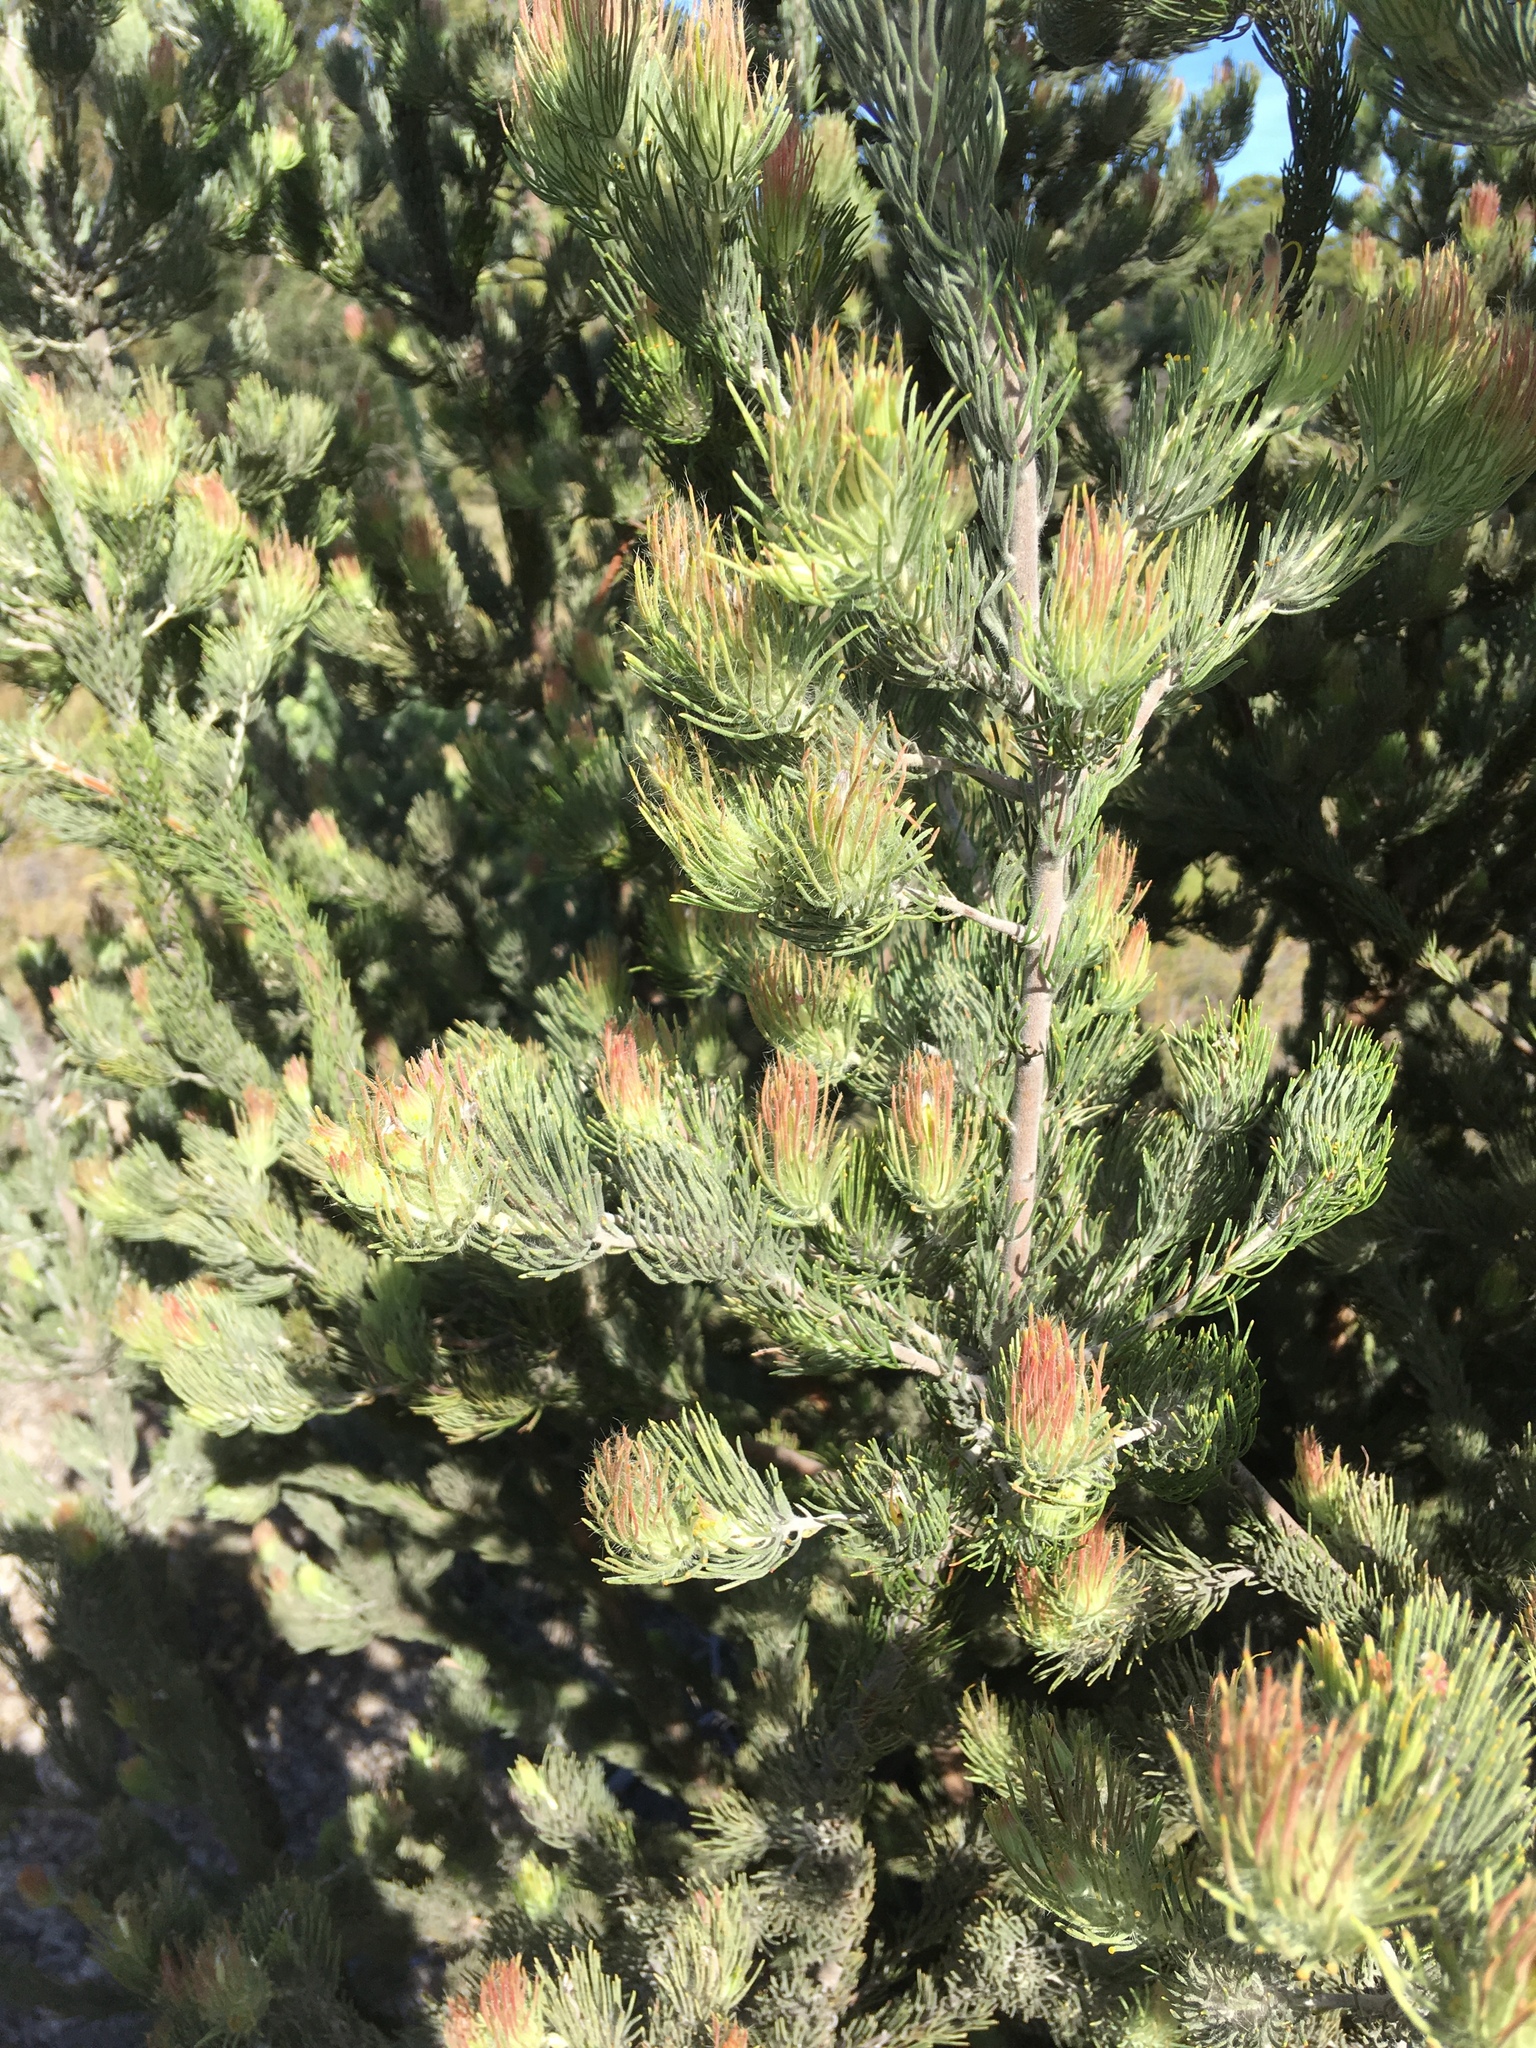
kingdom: Plantae
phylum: Tracheophyta
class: Magnoliopsida
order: Proteales
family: Proteaceae
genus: Adenanthos
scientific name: Adenanthos cygnorum
